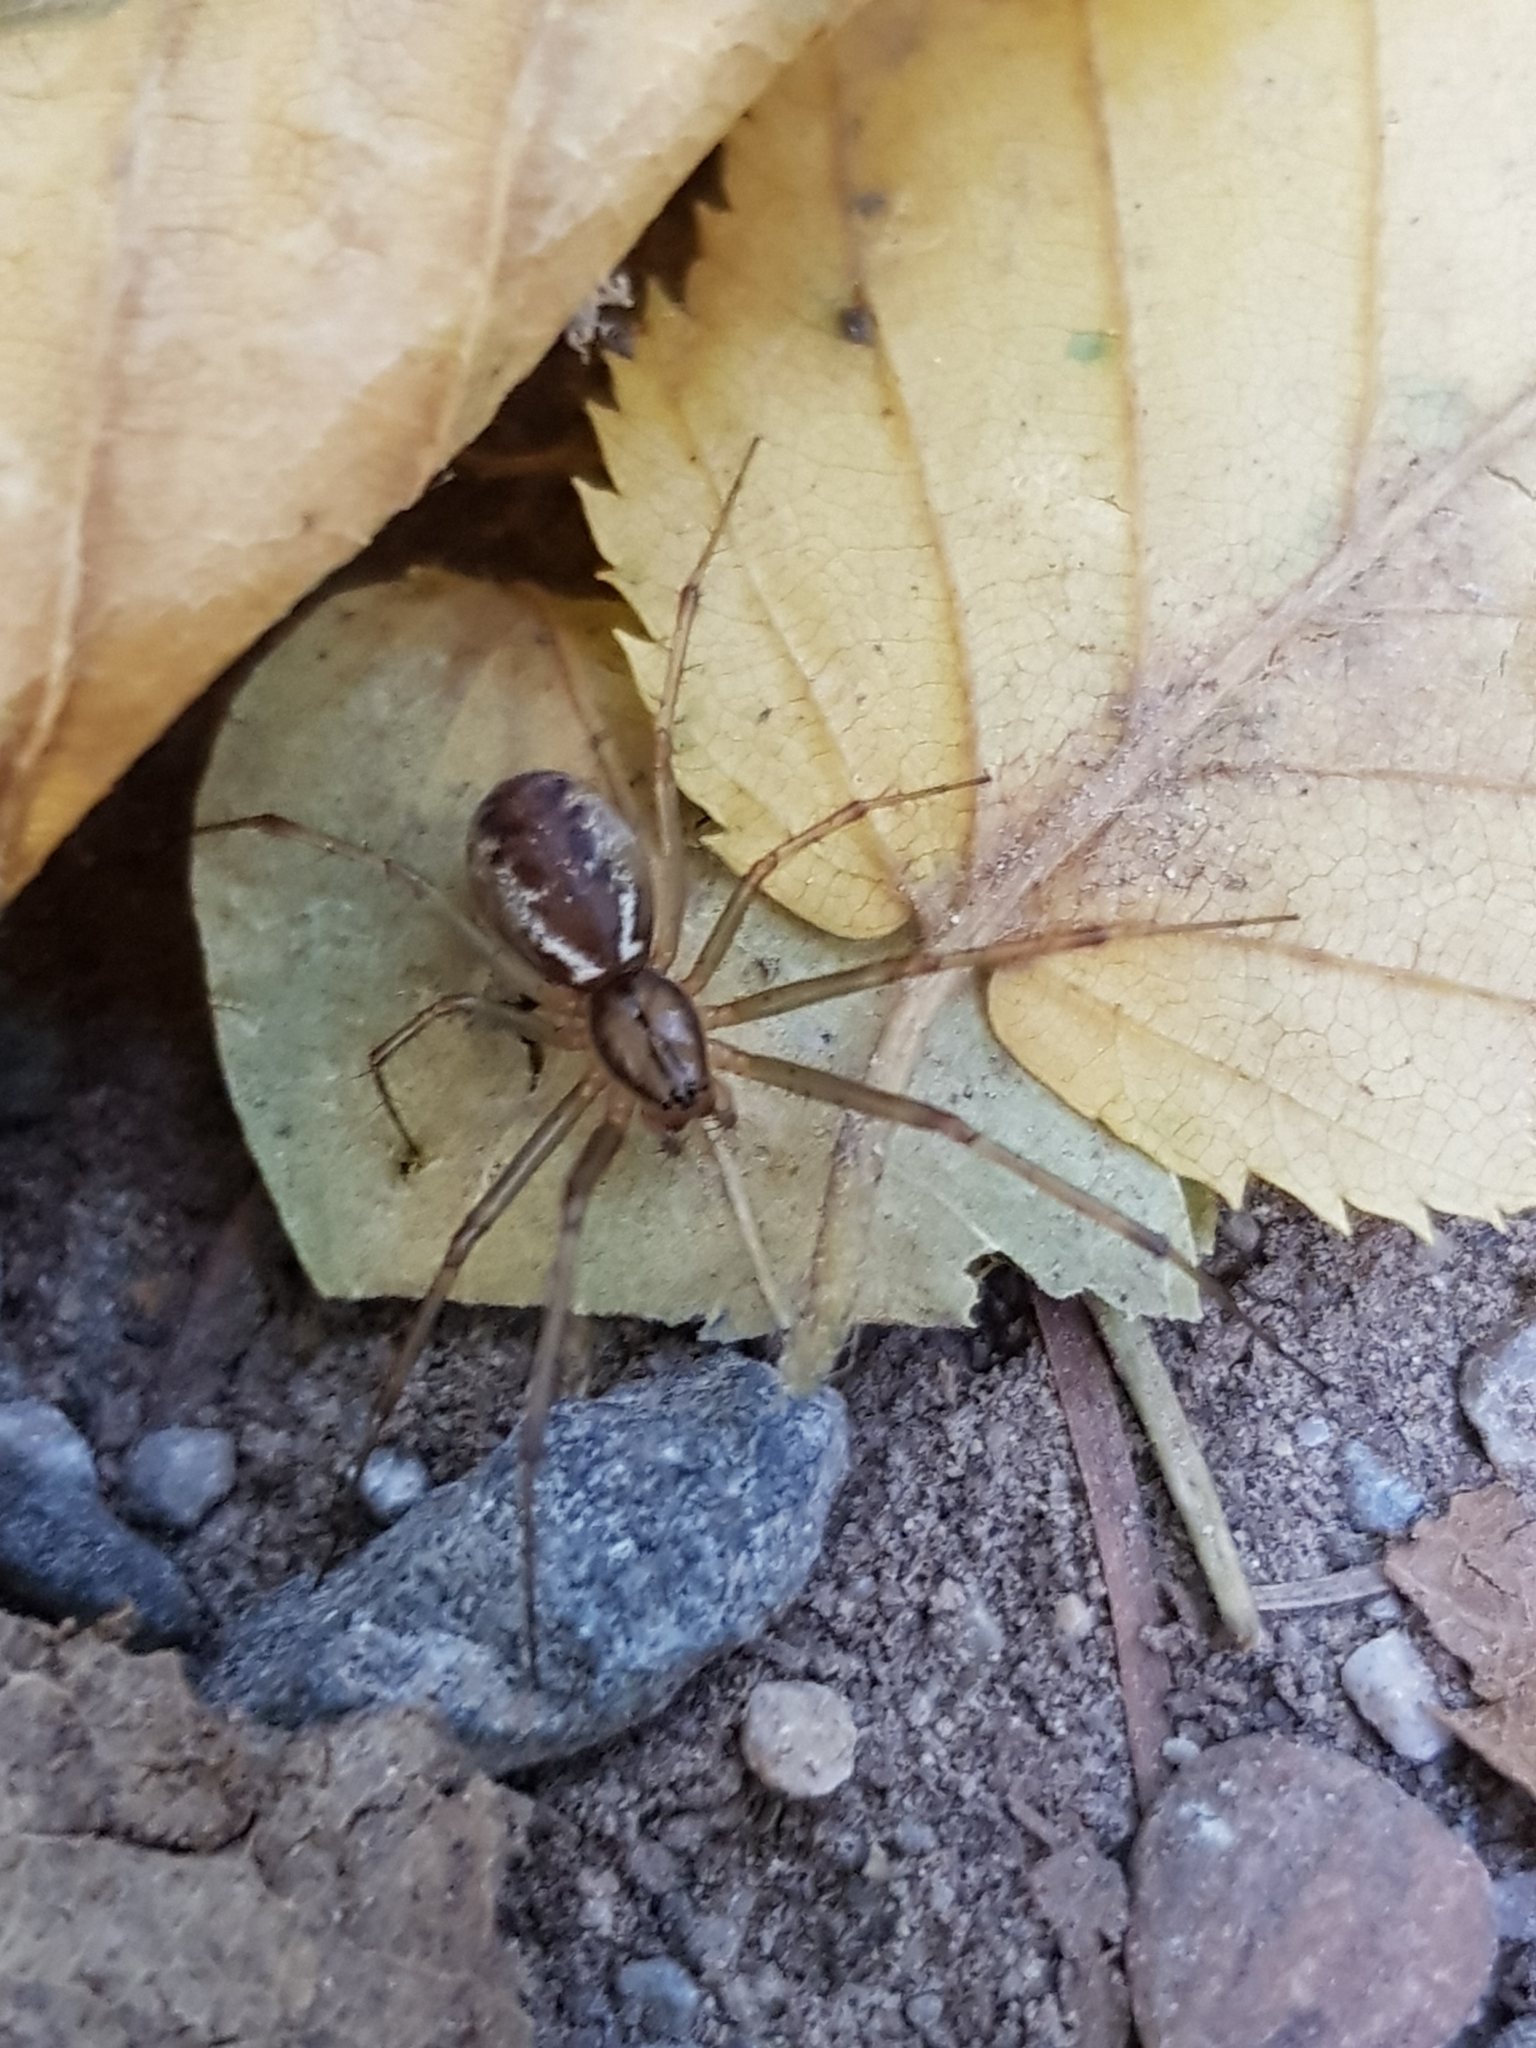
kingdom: Animalia
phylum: Arthropoda
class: Arachnida
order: Araneae
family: Linyphiidae
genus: Linyphia
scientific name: Linyphia triangularis
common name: Money spider
